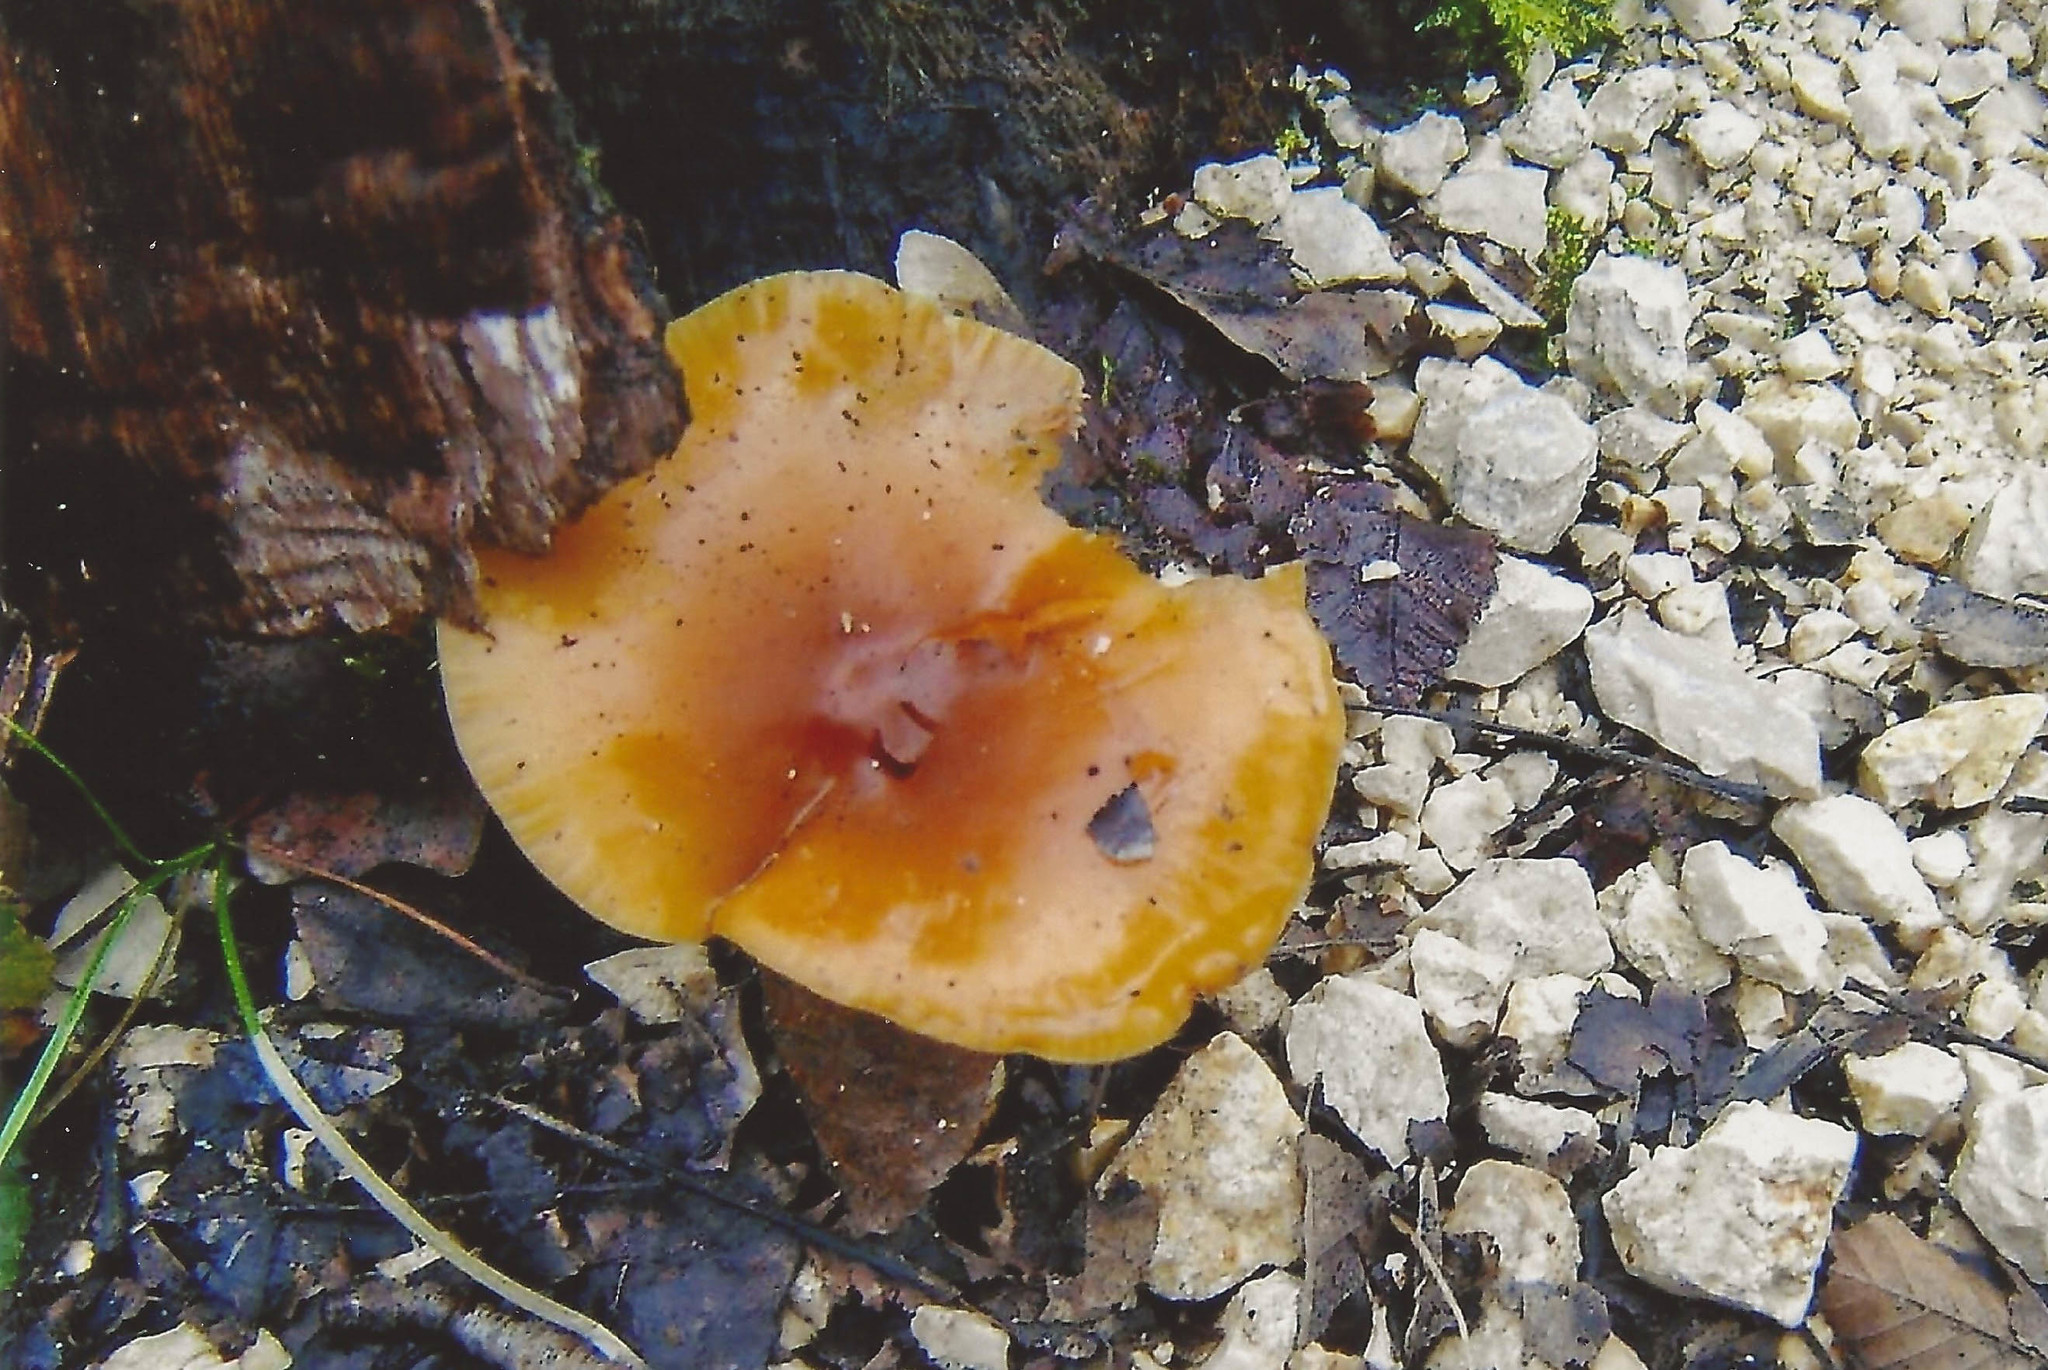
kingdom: Fungi
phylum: Basidiomycota
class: Agaricomycetes
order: Agaricales
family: Physalacriaceae
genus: Flammulina
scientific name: Flammulina
